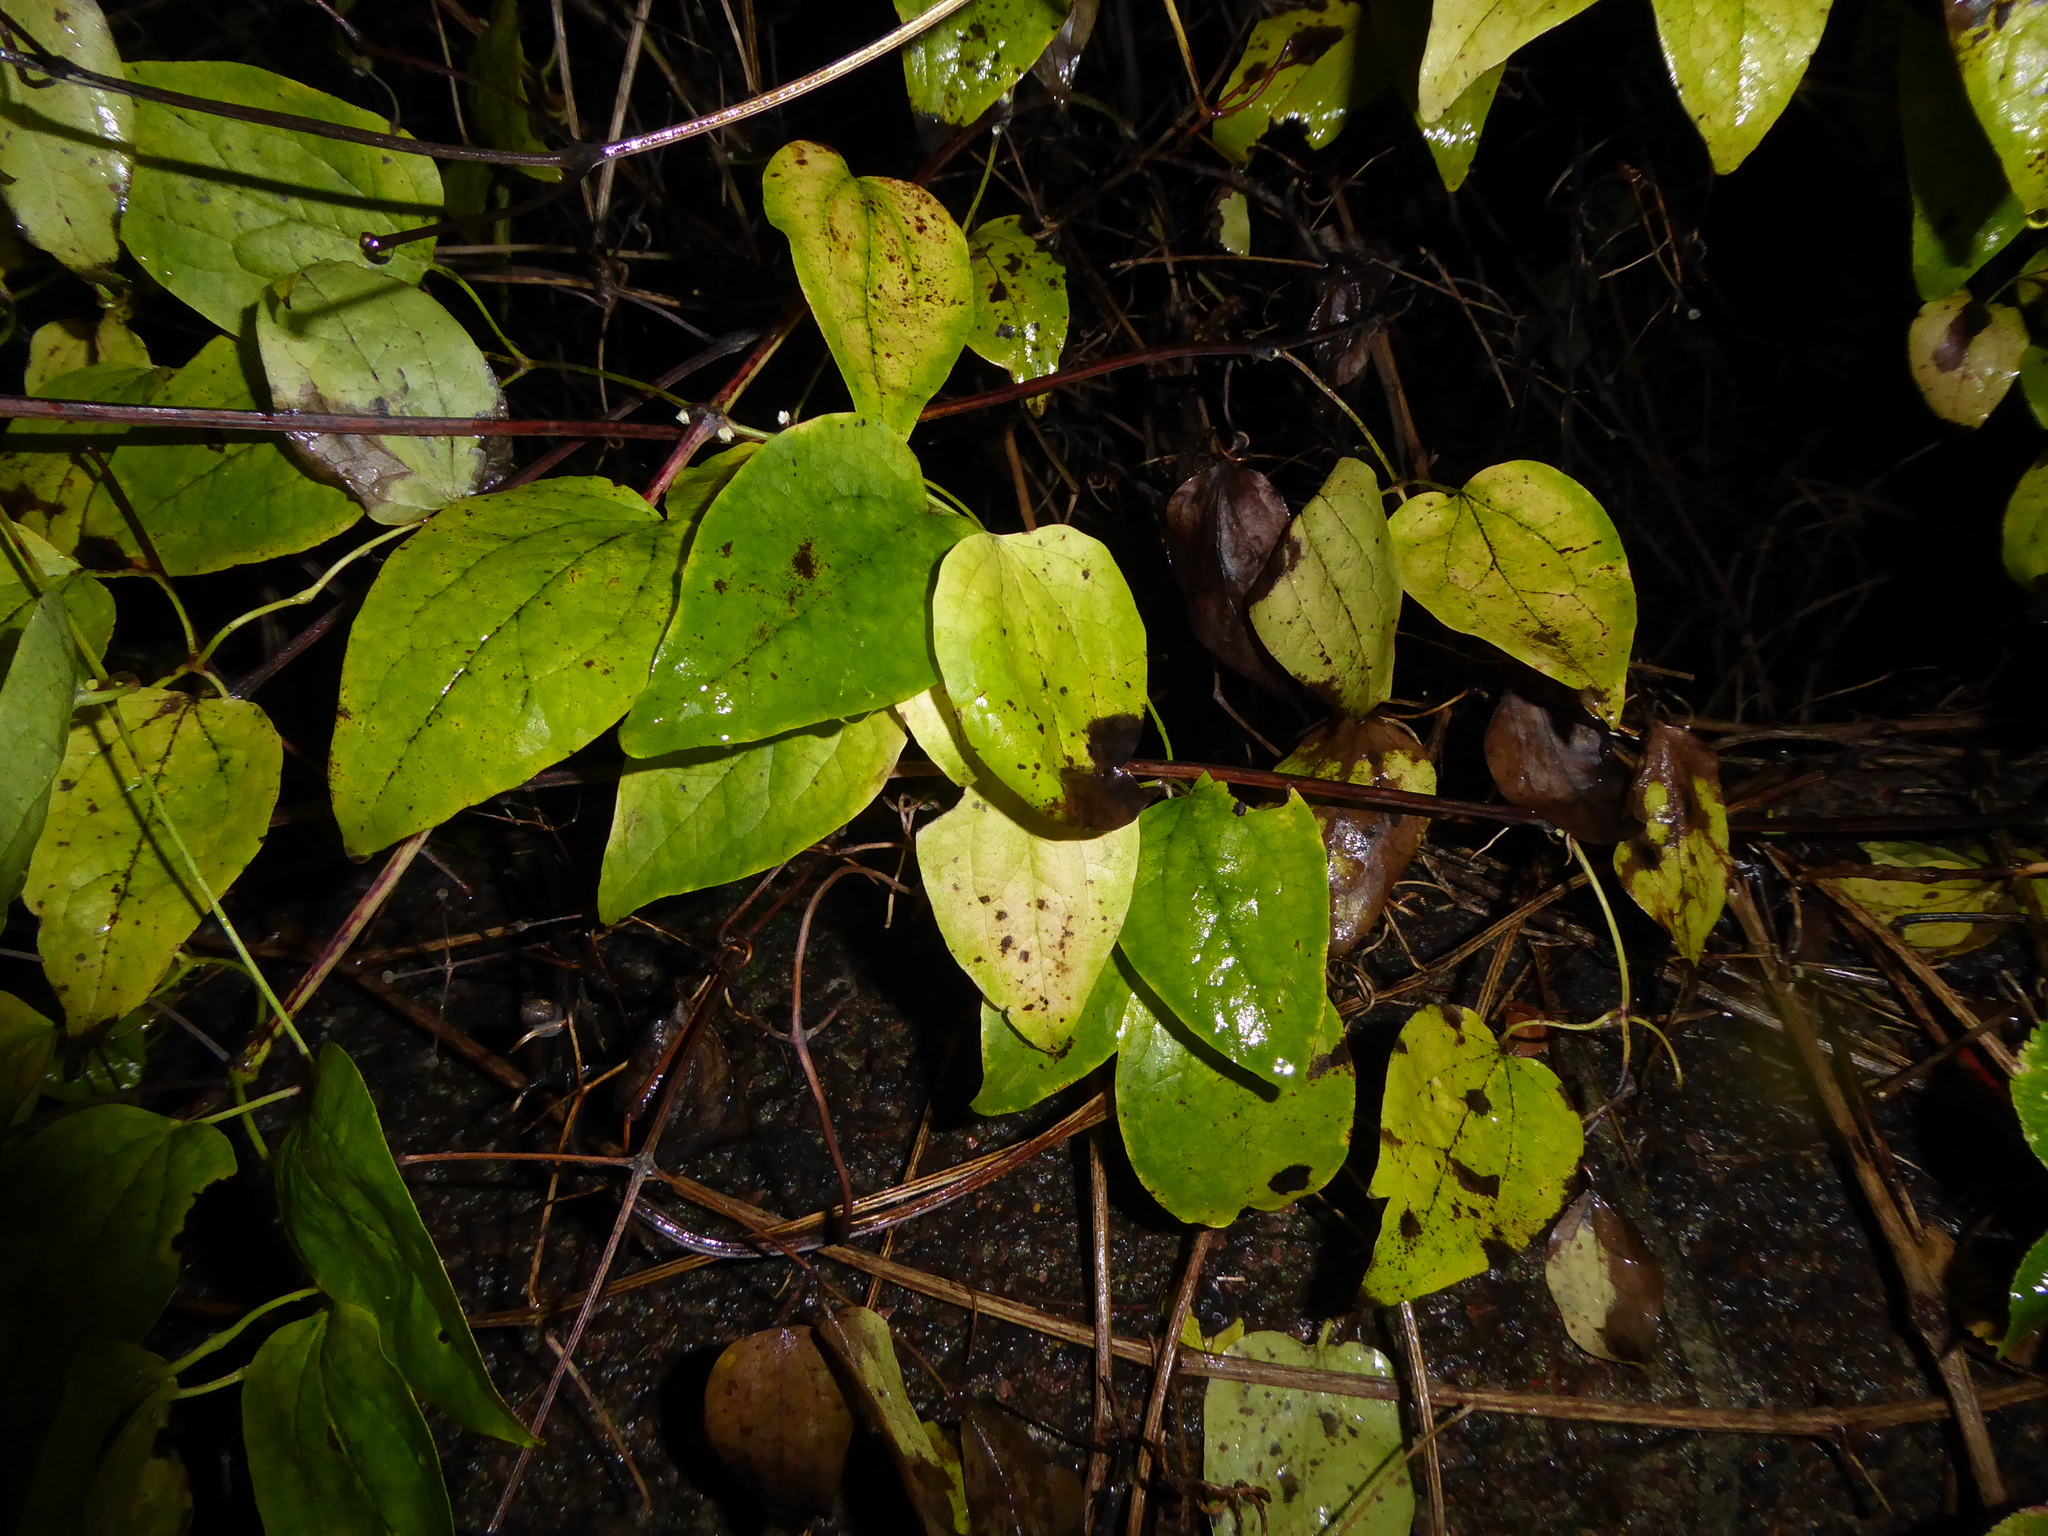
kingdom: Plantae
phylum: Tracheophyta
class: Magnoliopsida
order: Ranunculales
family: Ranunculaceae
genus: Clematis
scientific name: Clematis vitalba
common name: Evergreen clematis
